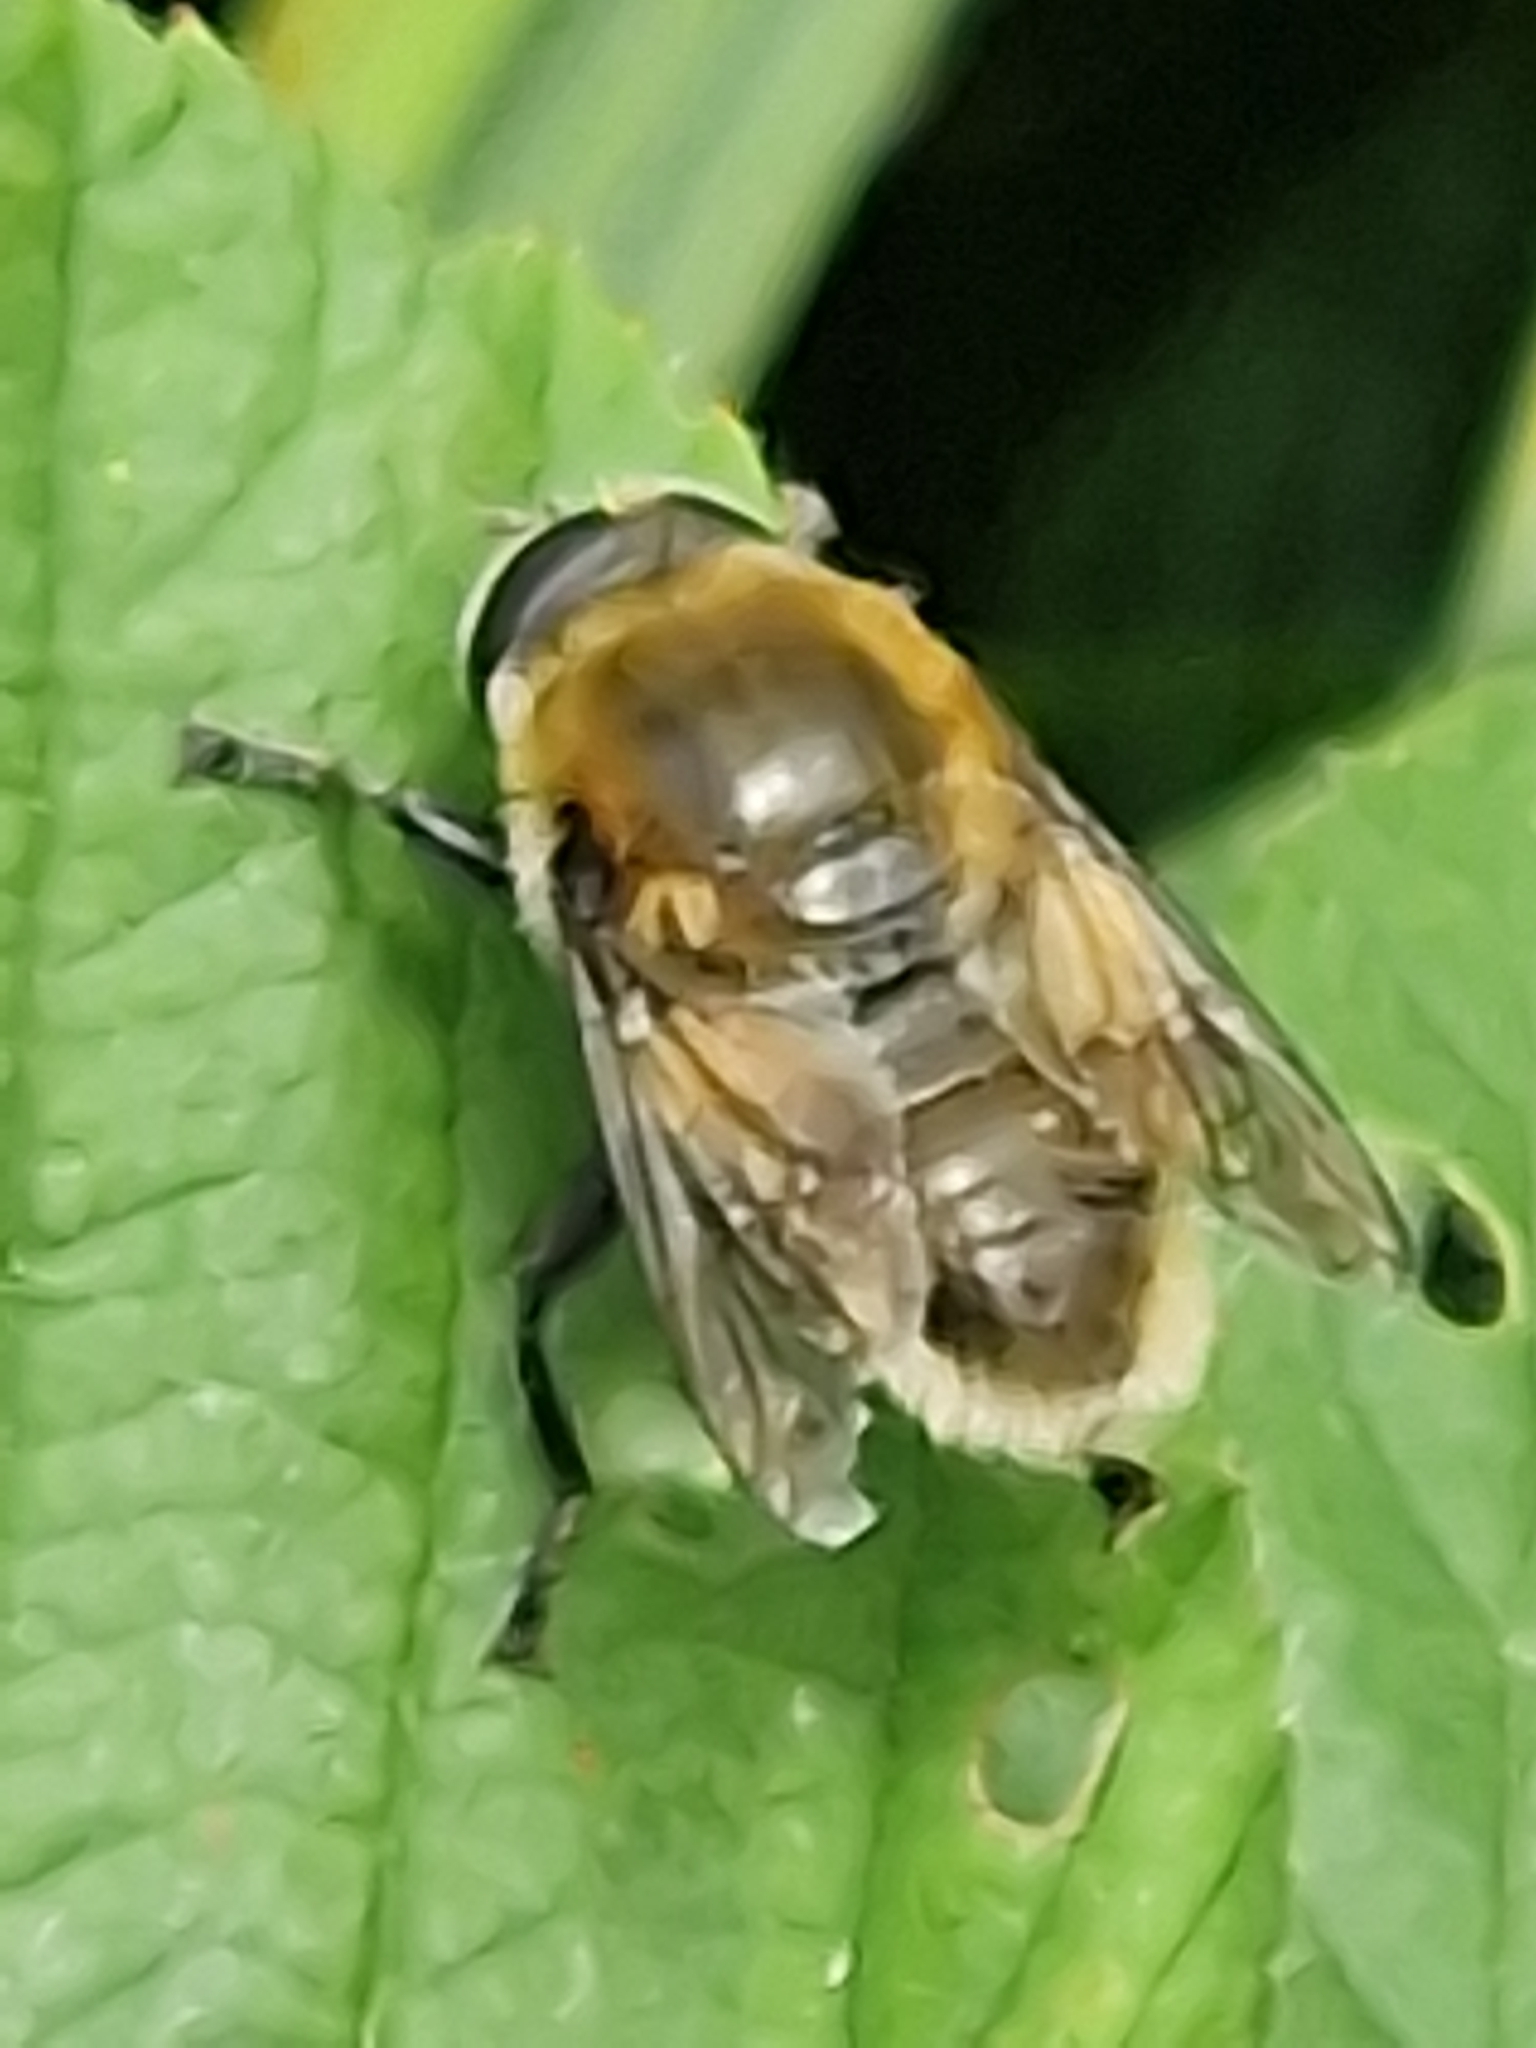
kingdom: Animalia
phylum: Arthropoda
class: Insecta
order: Diptera
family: Syrphidae
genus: Merodon
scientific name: Merodon equestris
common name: Greater bulb-fly
